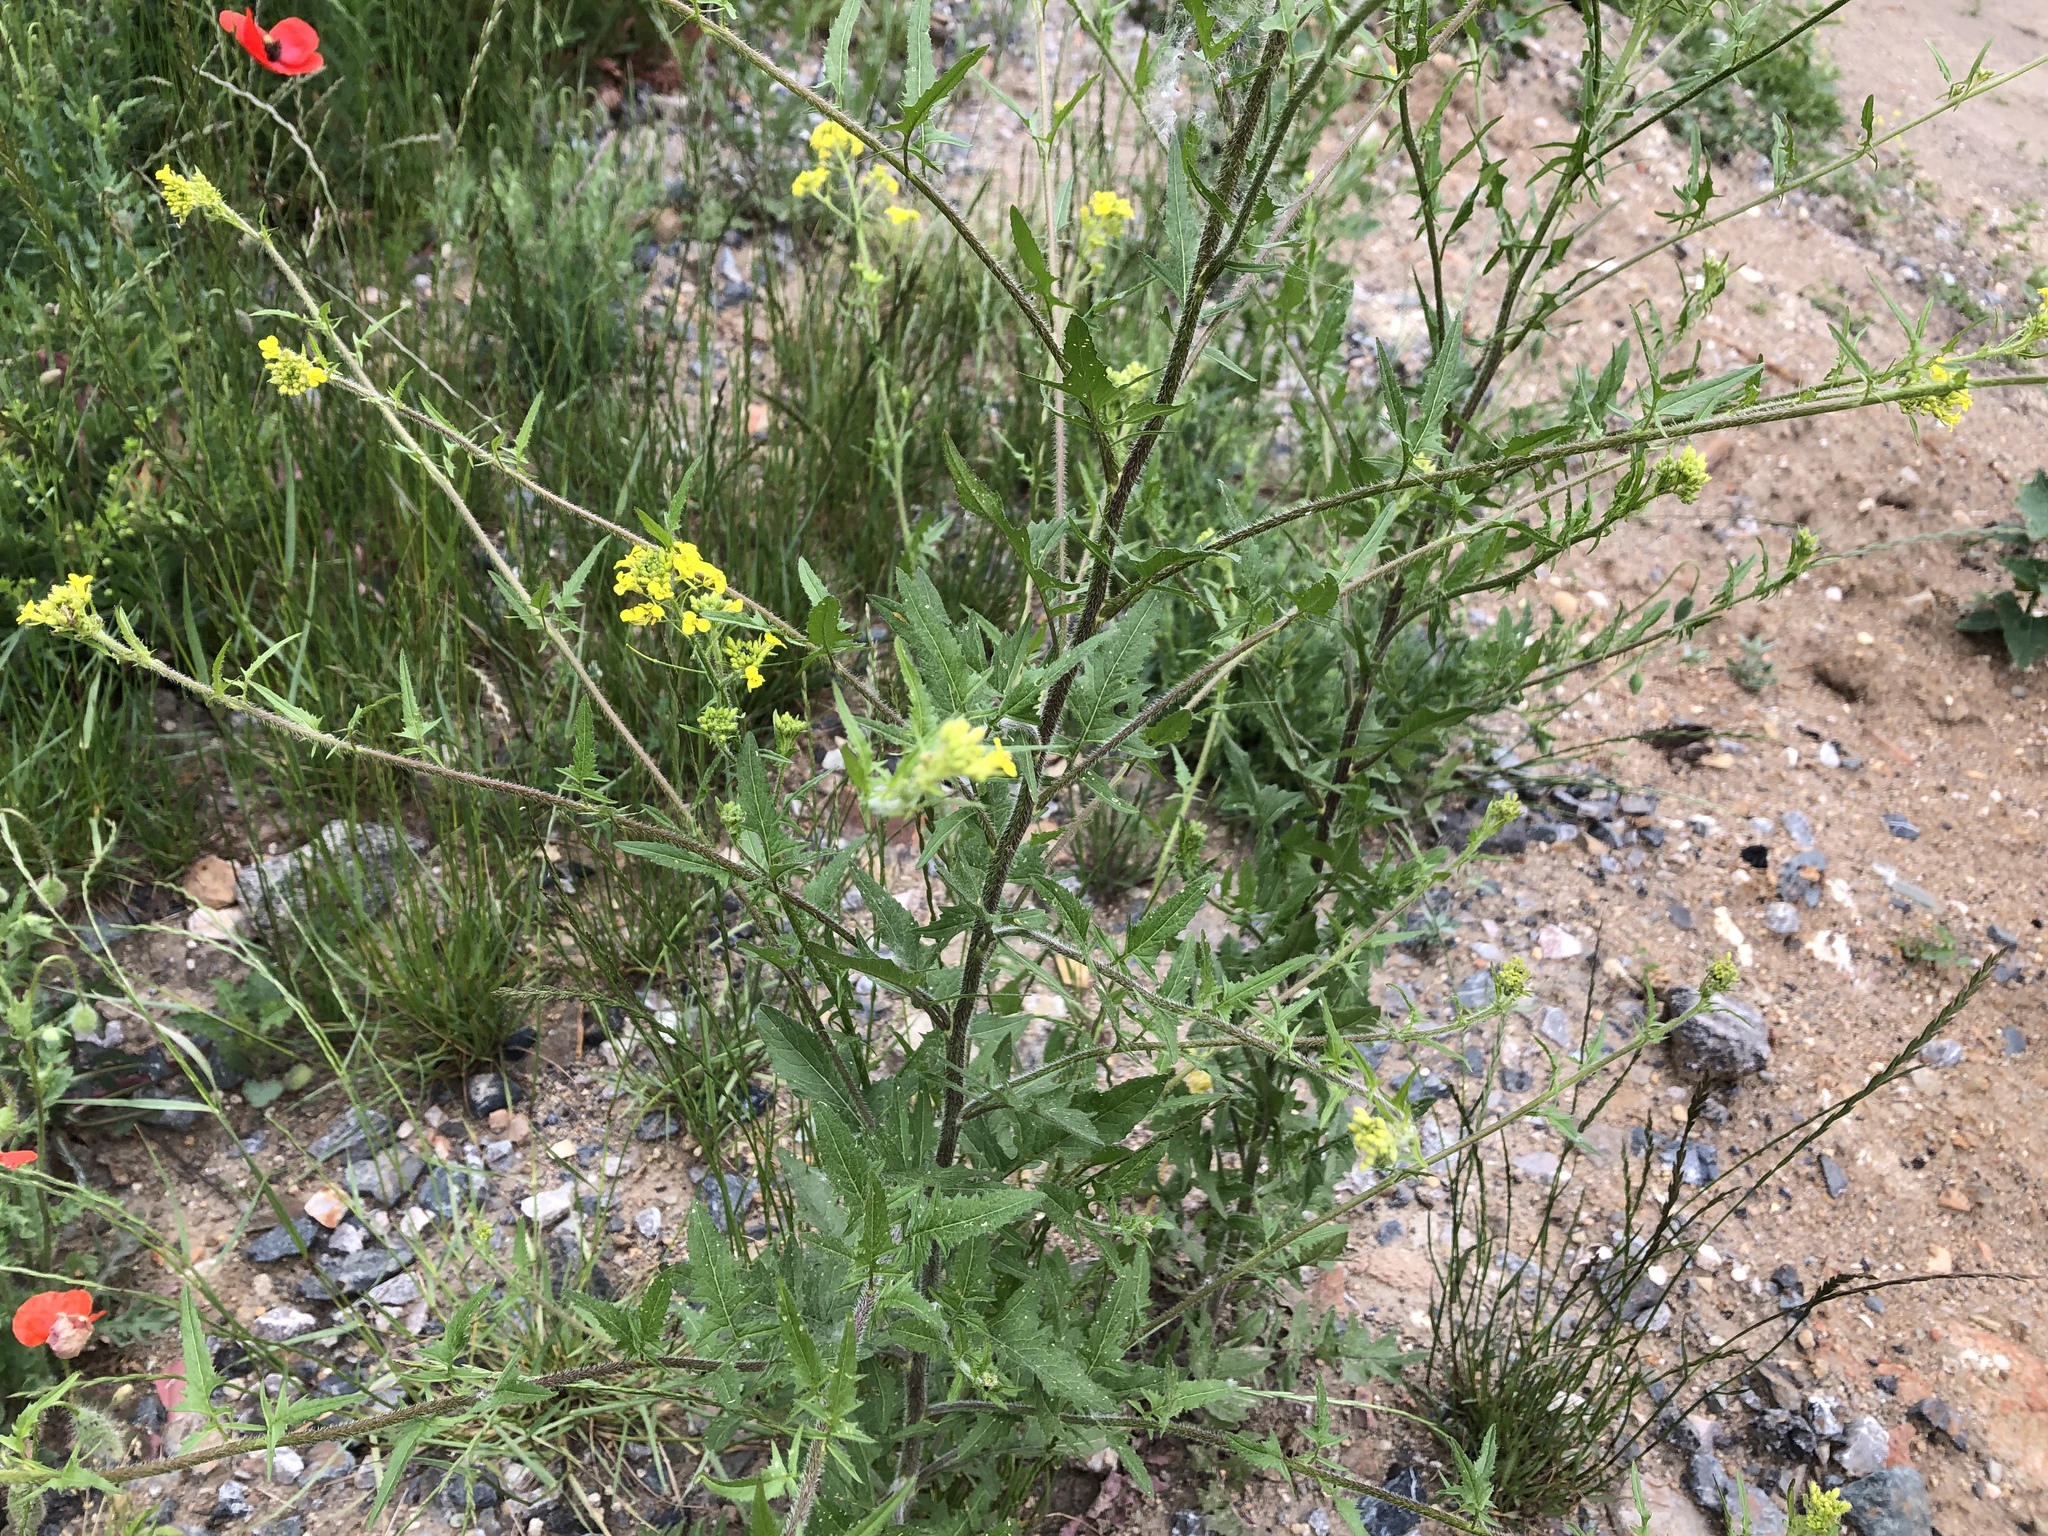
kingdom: Plantae
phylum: Tracheophyta
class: Magnoliopsida
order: Brassicales
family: Brassicaceae
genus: Sisymbrium
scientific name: Sisymbrium loeselii
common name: False london-rocket
